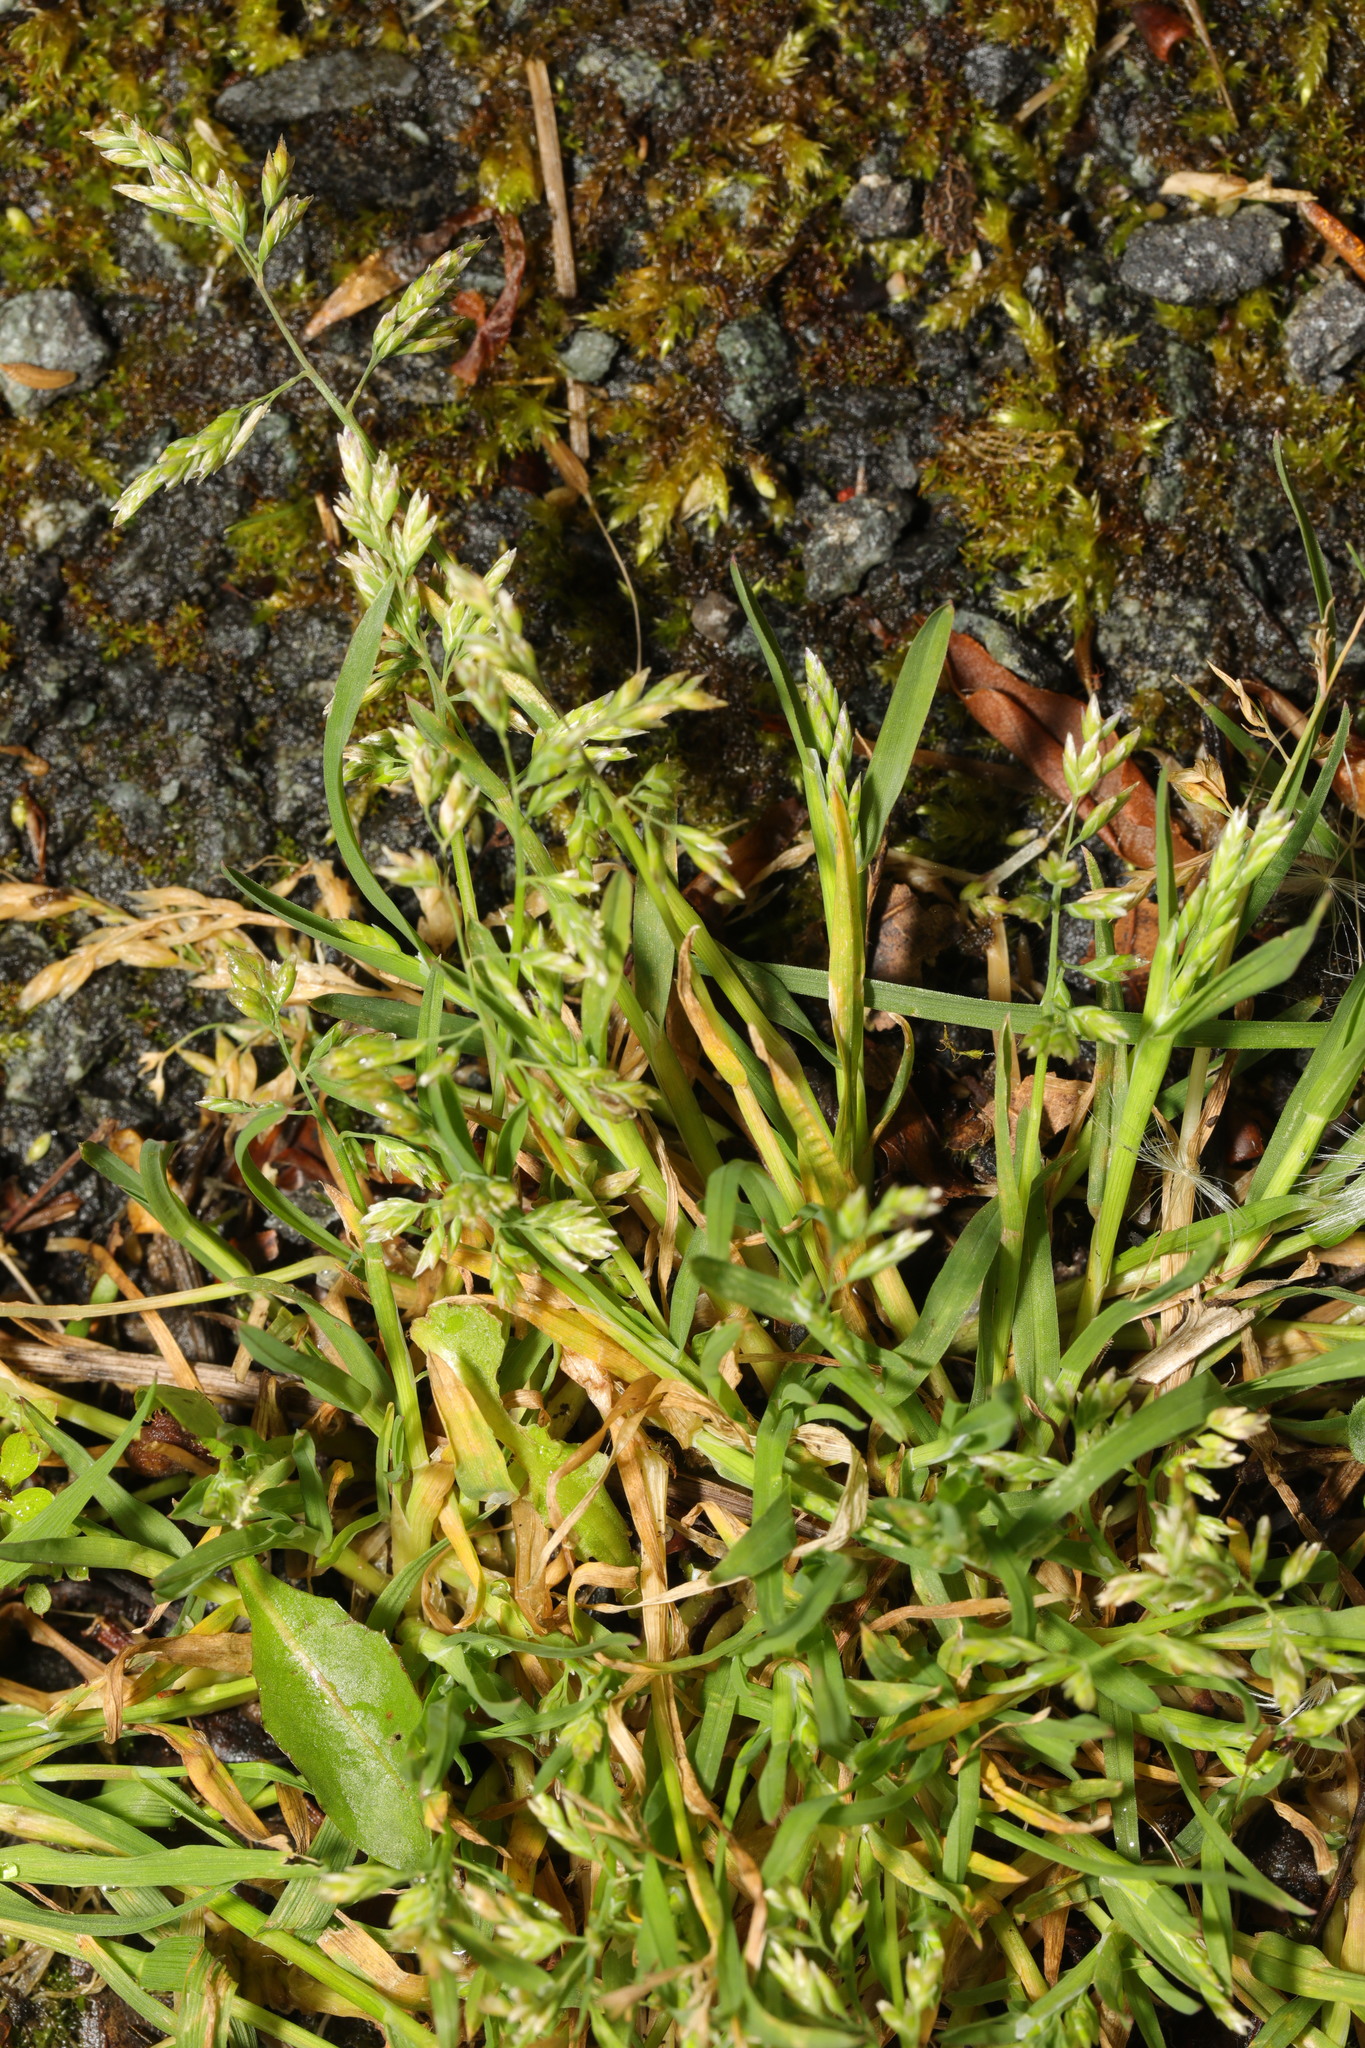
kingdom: Plantae
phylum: Tracheophyta
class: Liliopsida
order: Poales
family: Poaceae
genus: Poa
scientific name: Poa annua
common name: Annual bluegrass
